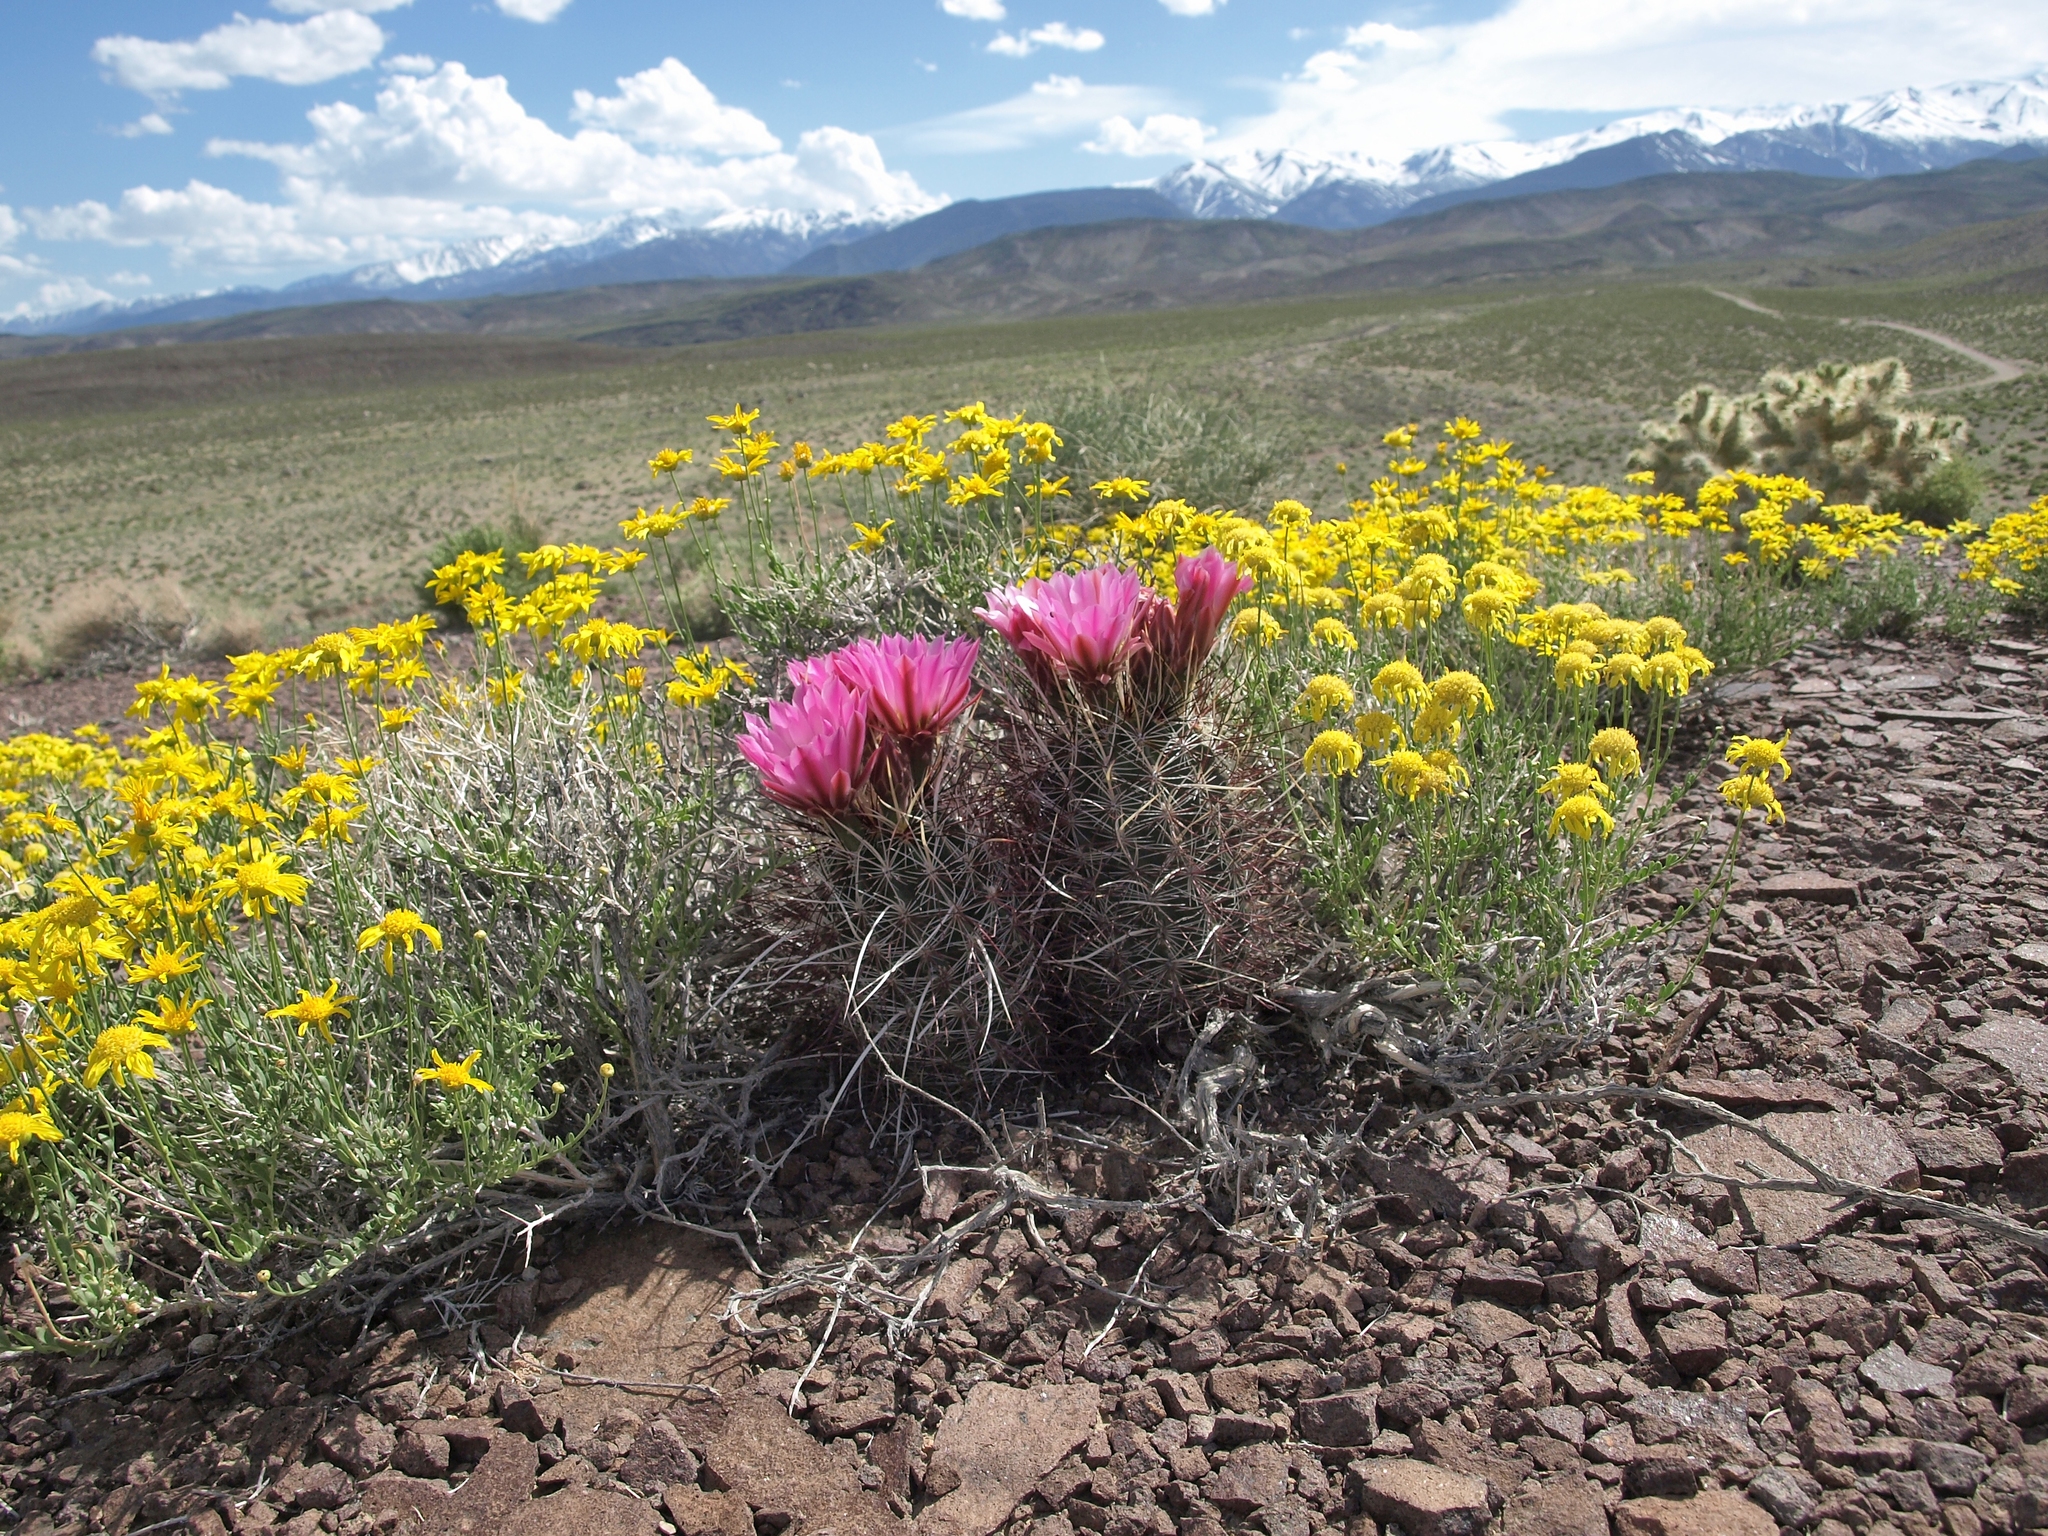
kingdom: Plantae
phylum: Tracheophyta
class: Magnoliopsida
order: Caryophyllales
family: Cactaceae
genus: Sclerocactus
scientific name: Sclerocactus polyancistrus
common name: Mohave fishhook cactus
